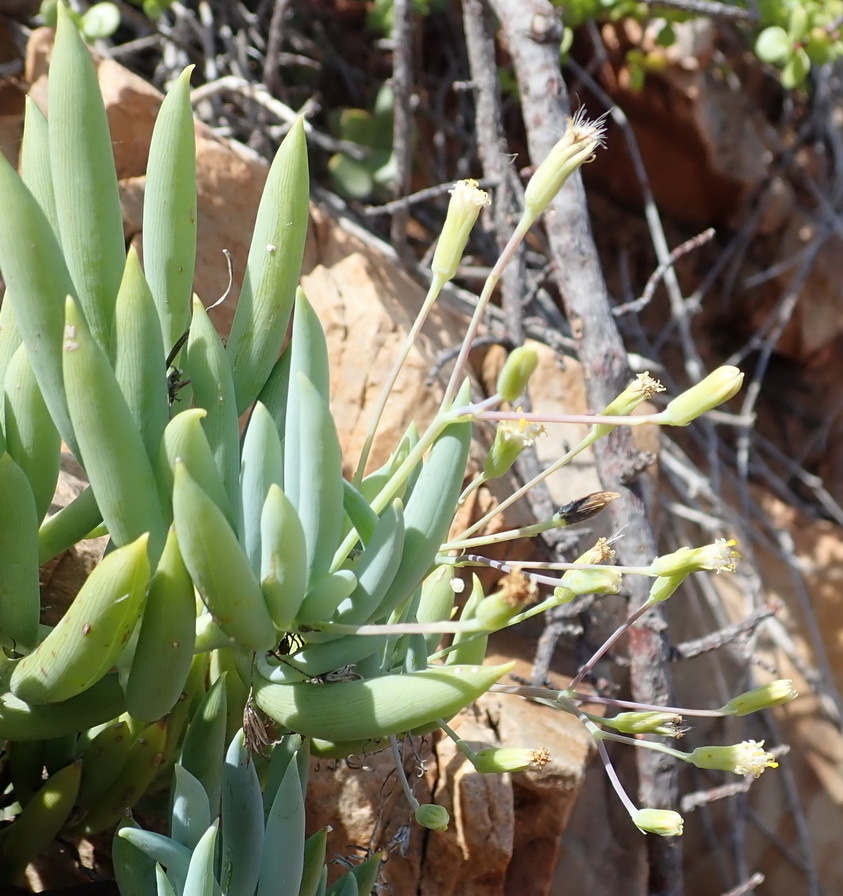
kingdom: Plantae
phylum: Tracheophyta
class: Magnoliopsida
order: Asterales
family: Asteraceae
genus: Curio
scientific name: Curio ficoides
